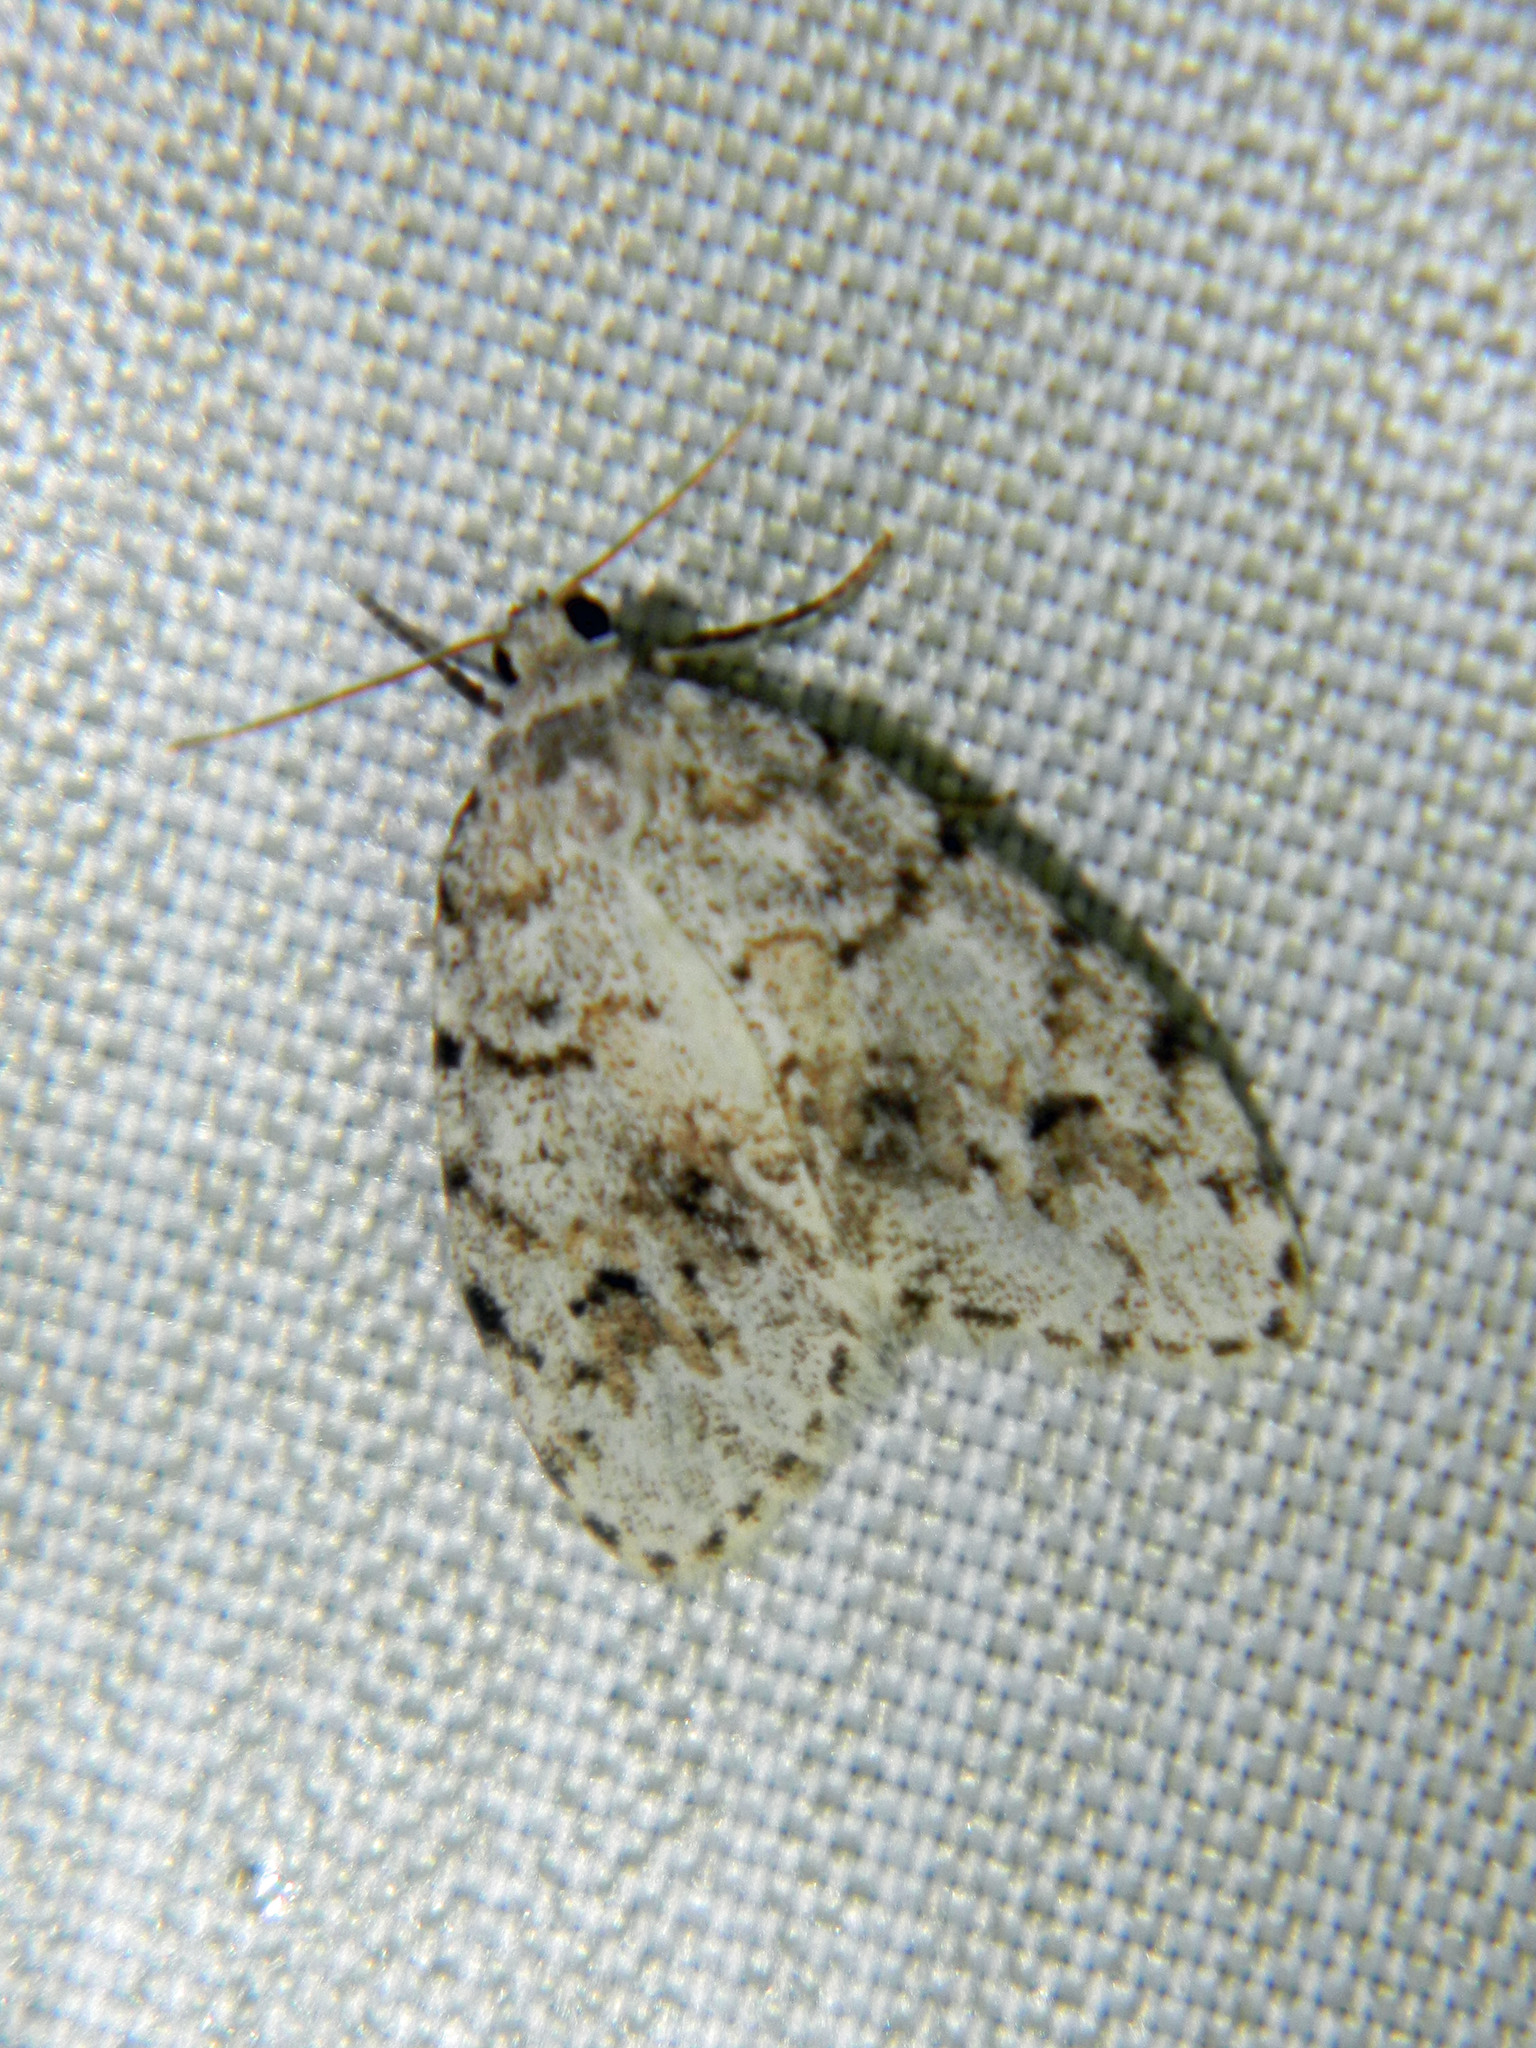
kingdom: Animalia
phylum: Arthropoda
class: Insecta
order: Lepidoptera
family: Erebidae
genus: Clemensia
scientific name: Clemensia umbrata
